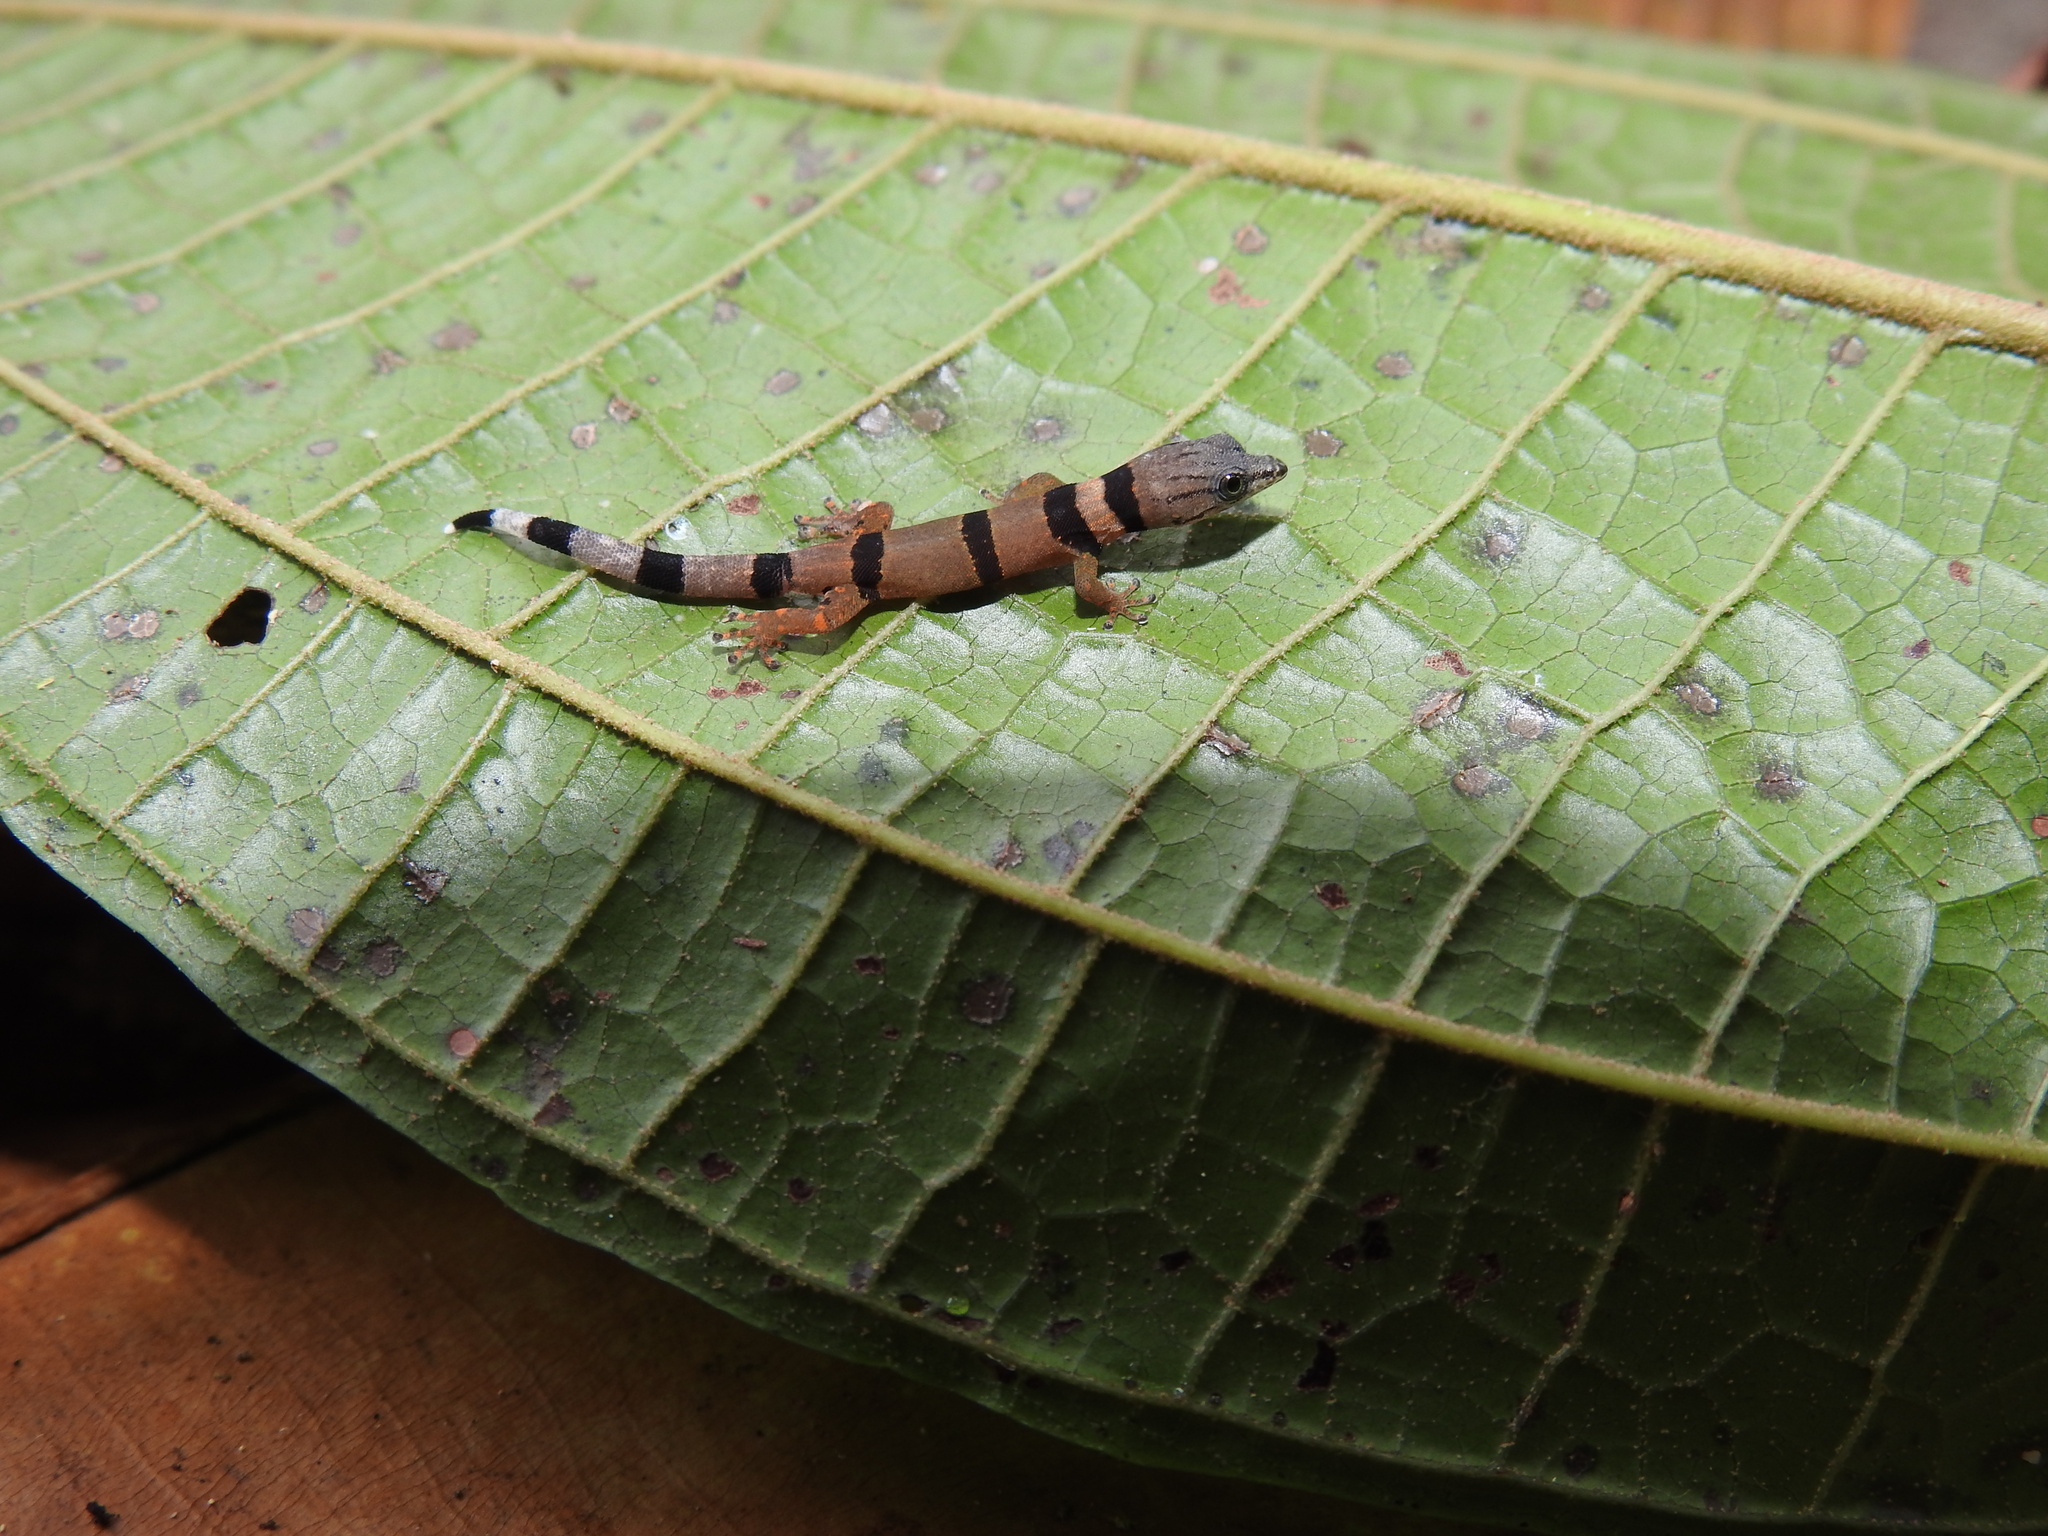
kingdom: Animalia
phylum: Chordata
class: Squamata
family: Sphaerodactylidae
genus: Sphaerodactylus
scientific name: Sphaerodactylus homolepis
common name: Caribbean least gecko
